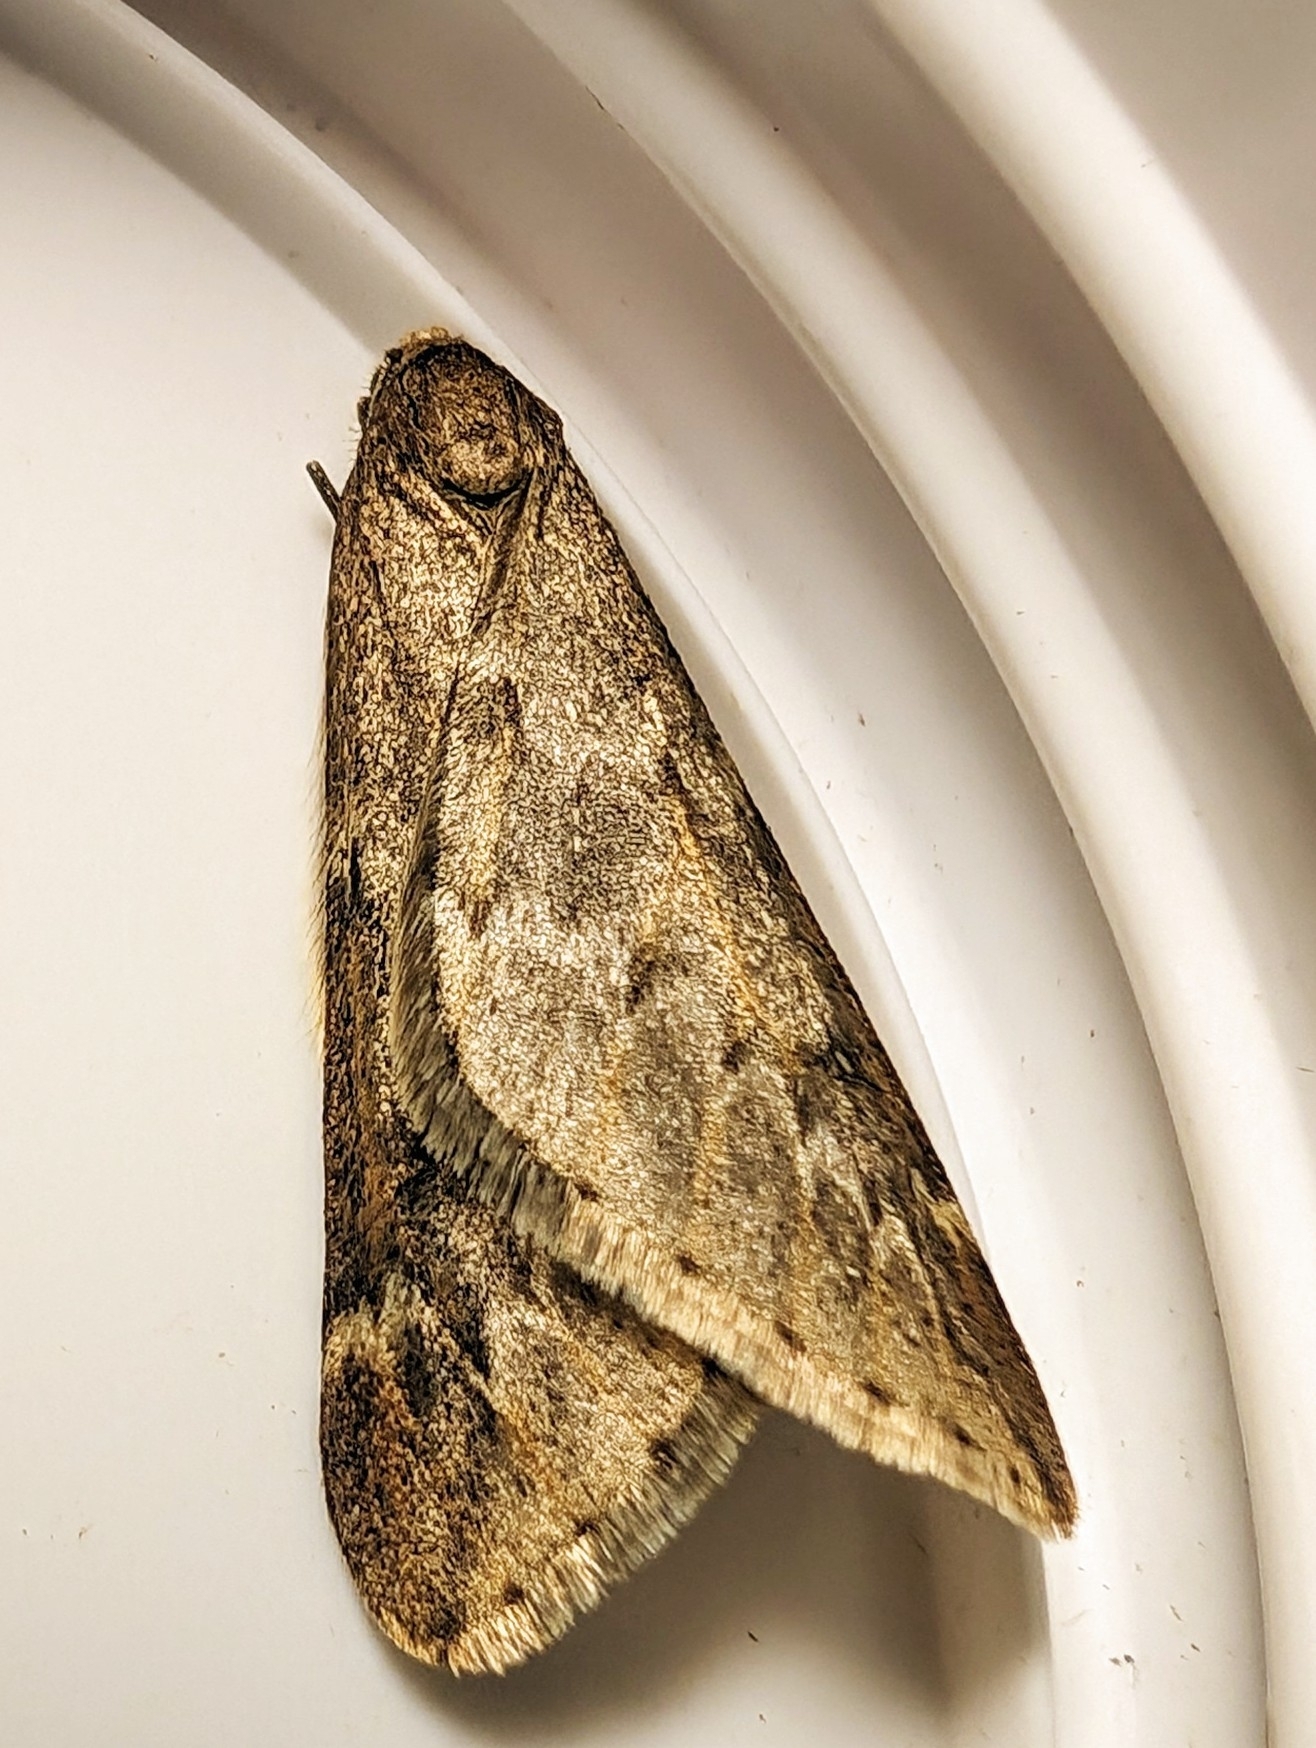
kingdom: Animalia
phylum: Arthropoda
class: Insecta
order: Lepidoptera
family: Geometridae
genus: Alsophila
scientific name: Alsophila aescularia
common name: March moth
